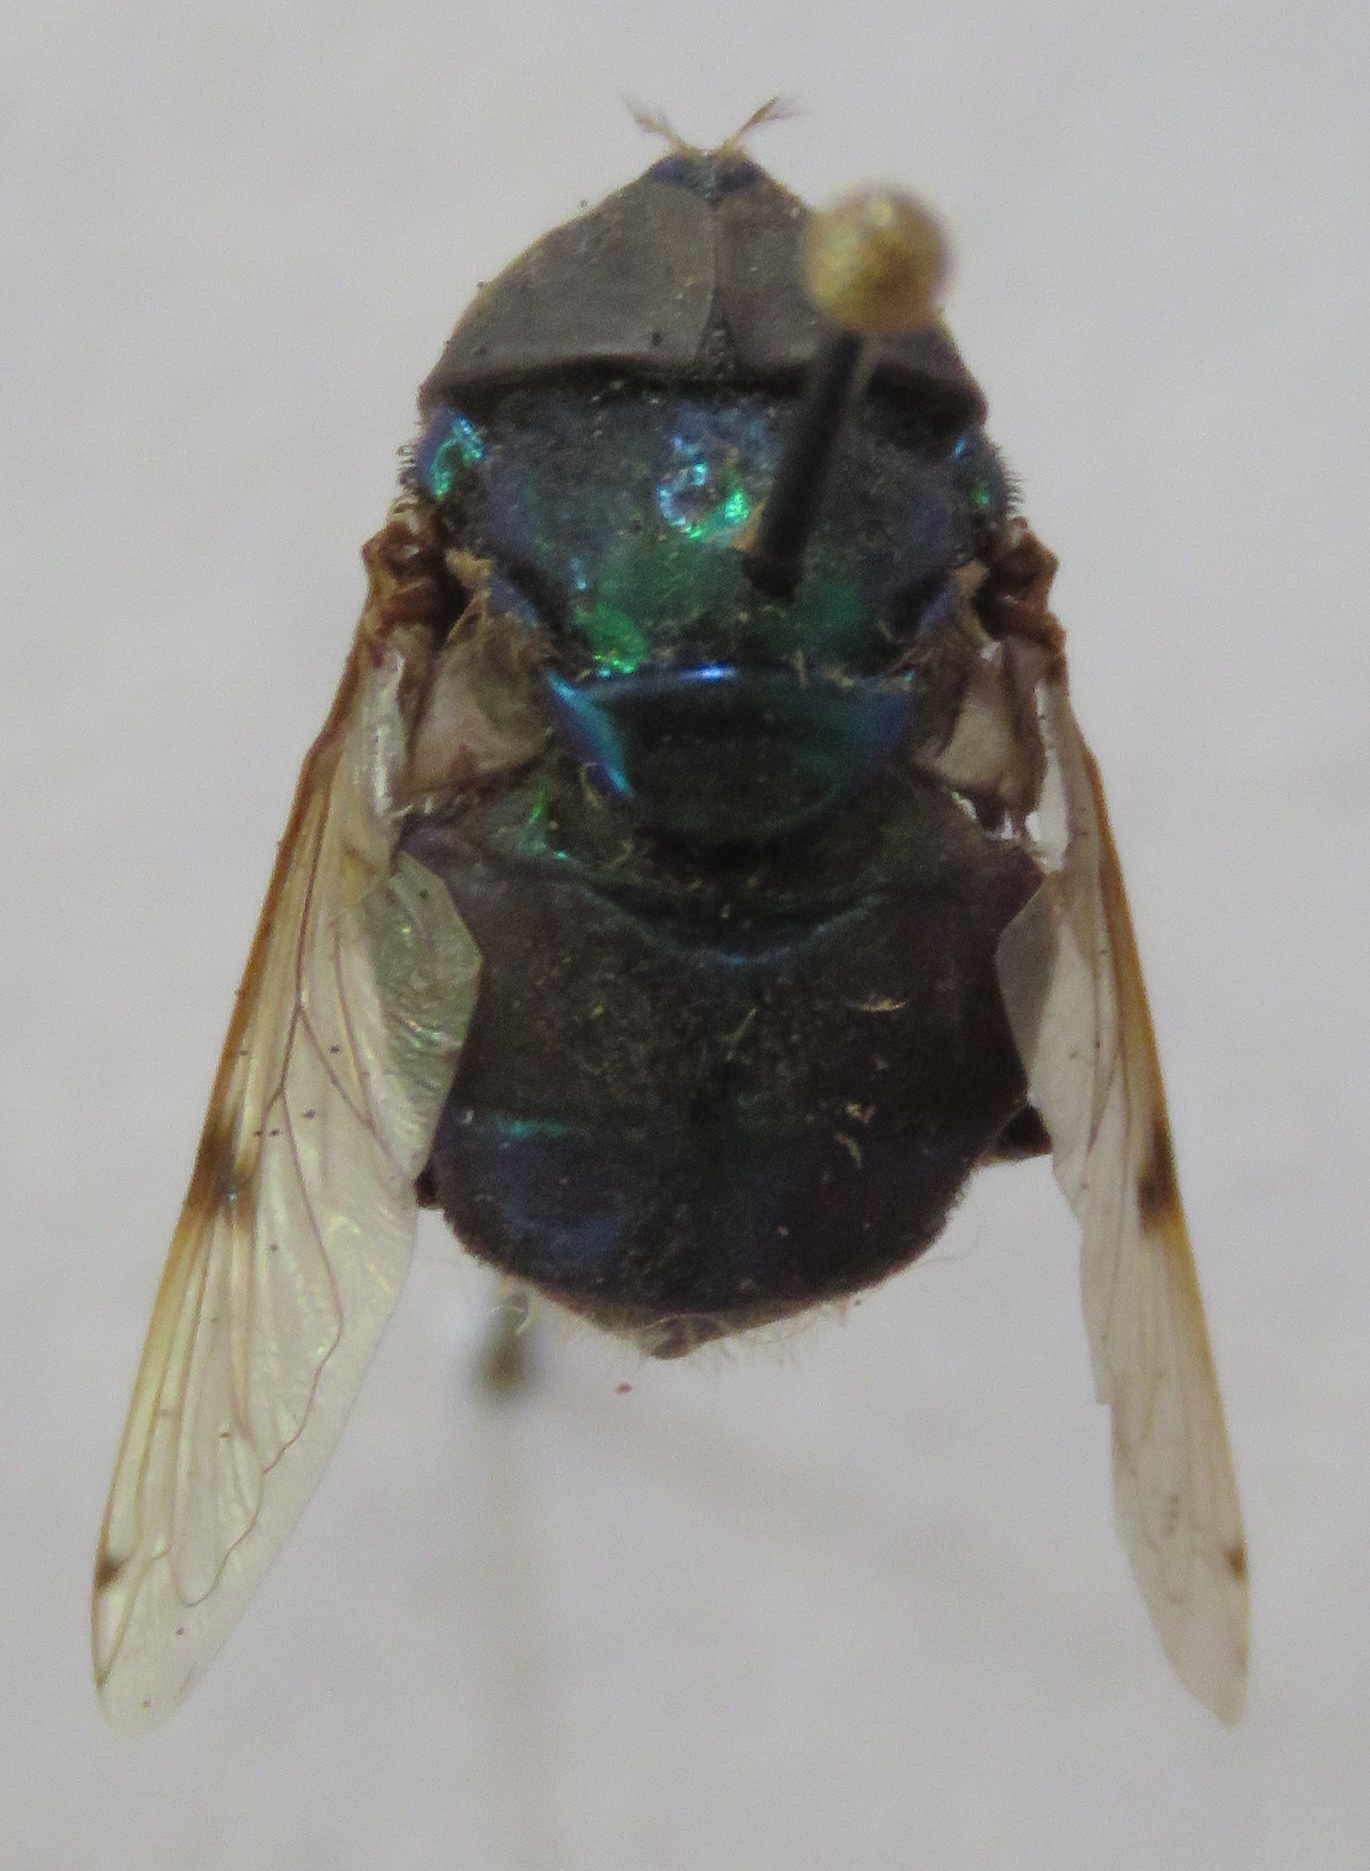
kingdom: Animalia
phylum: Arthropoda
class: Insecta
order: Diptera
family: Syrphidae
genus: Ornidia
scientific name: Ornidia obesa
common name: Syrphid fly
